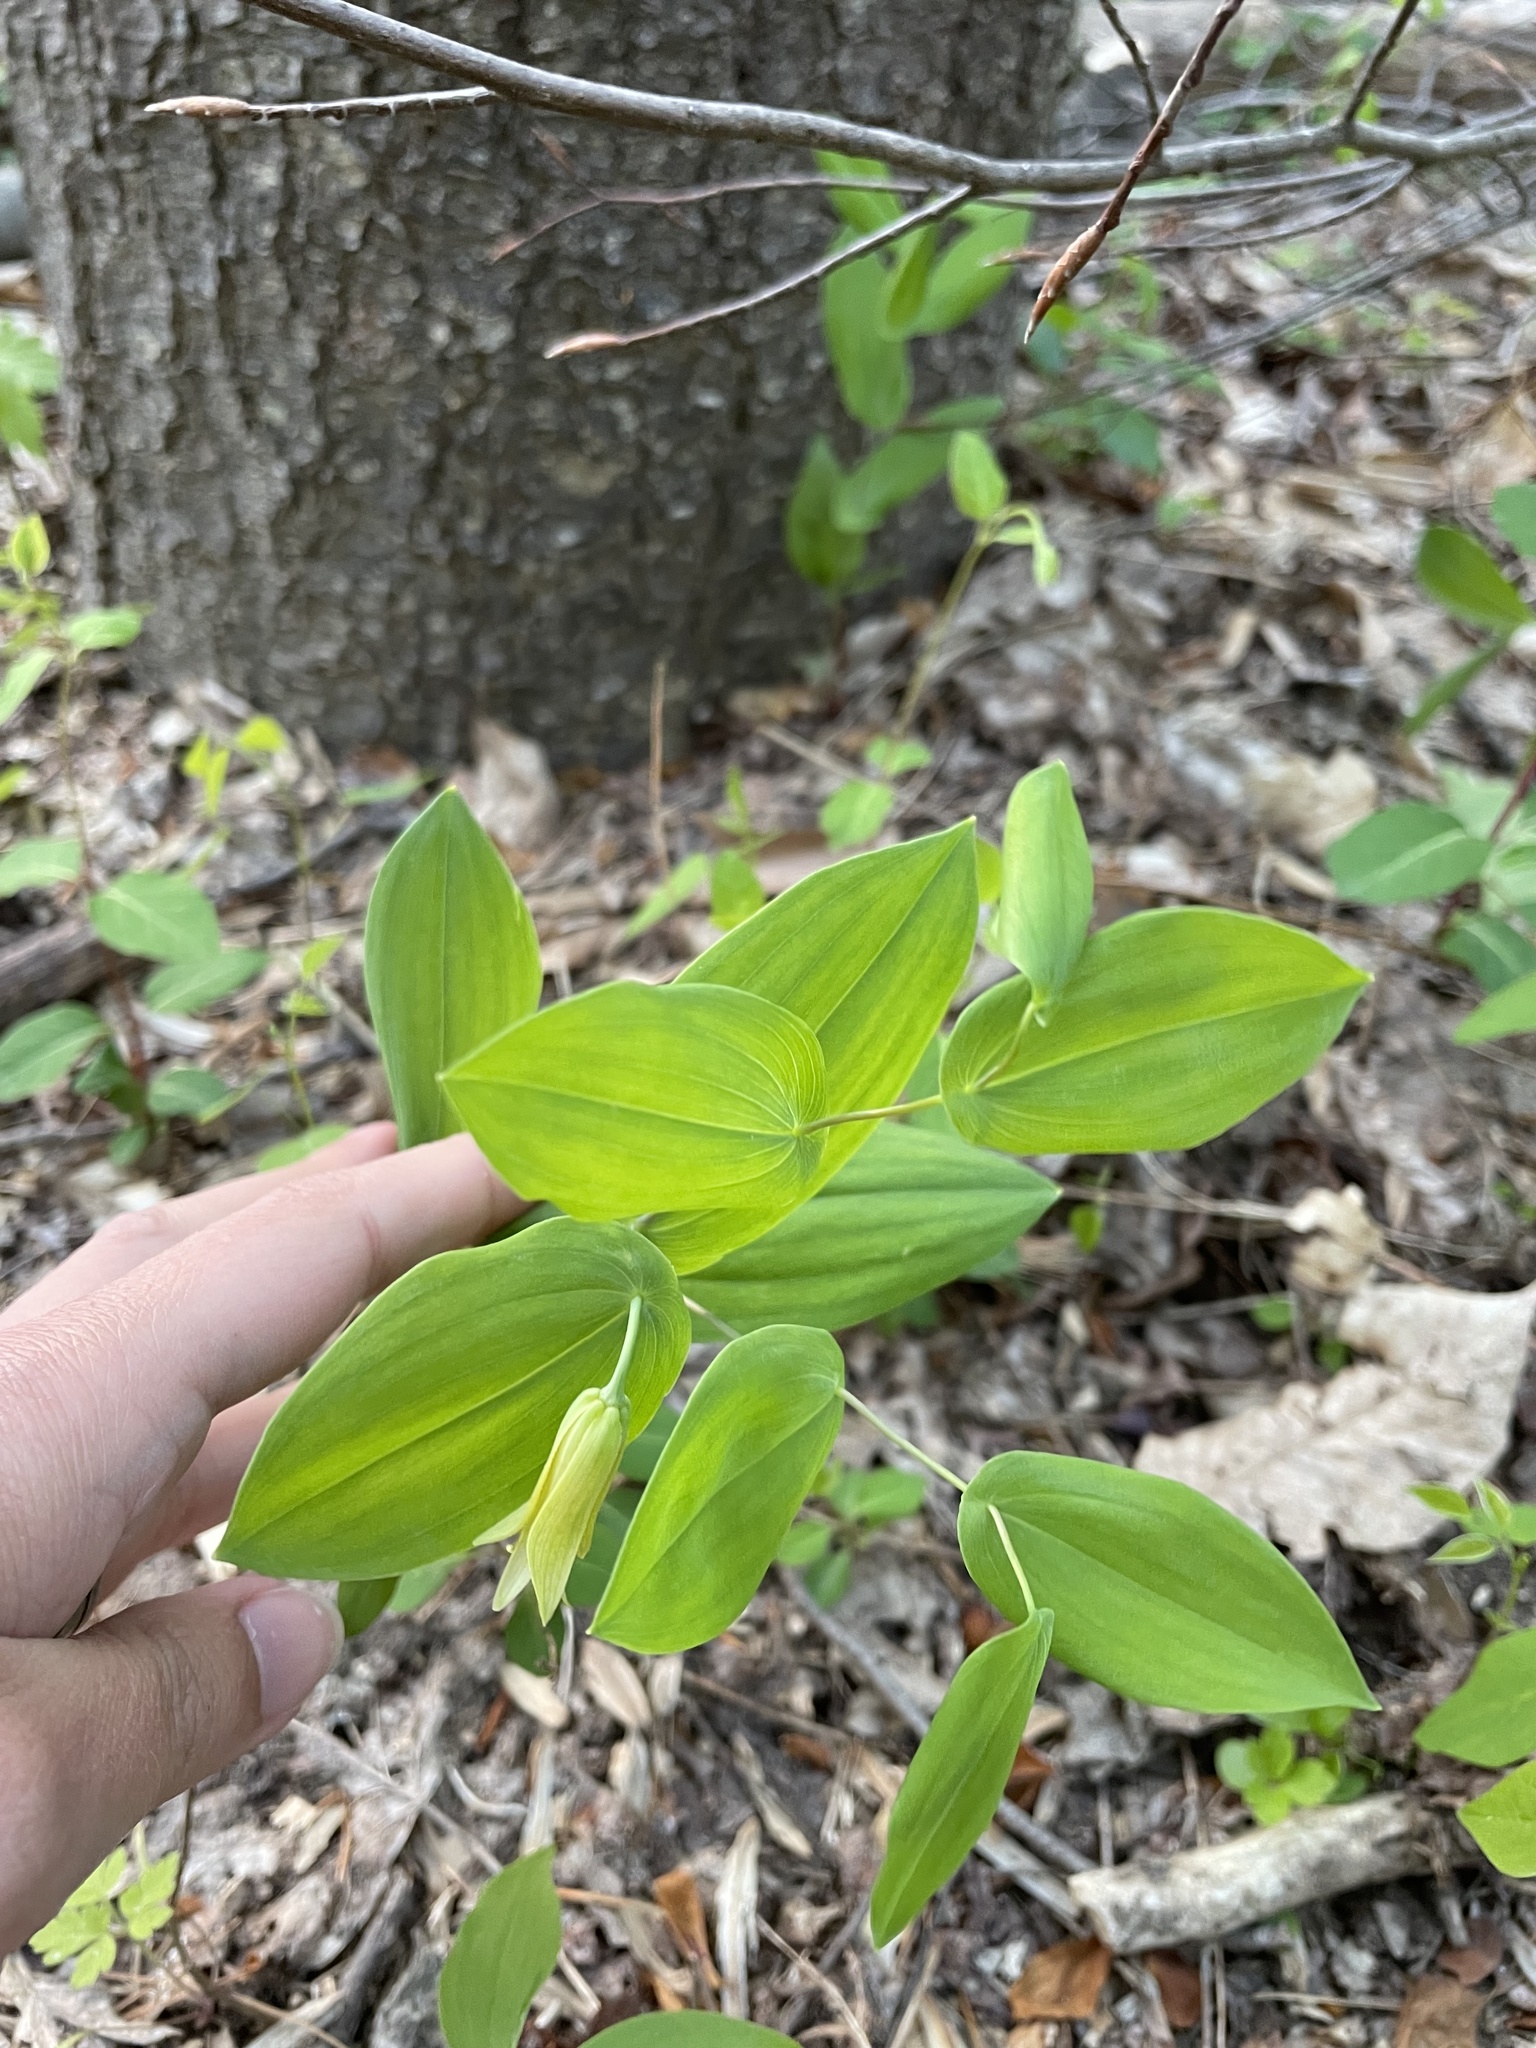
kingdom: Plantae
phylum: Tracheophyta
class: Liliopsida
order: Liliales
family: Colchicaceae
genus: Uvularia
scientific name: Uvularia perfoliata
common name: Perfoliate bellwort
